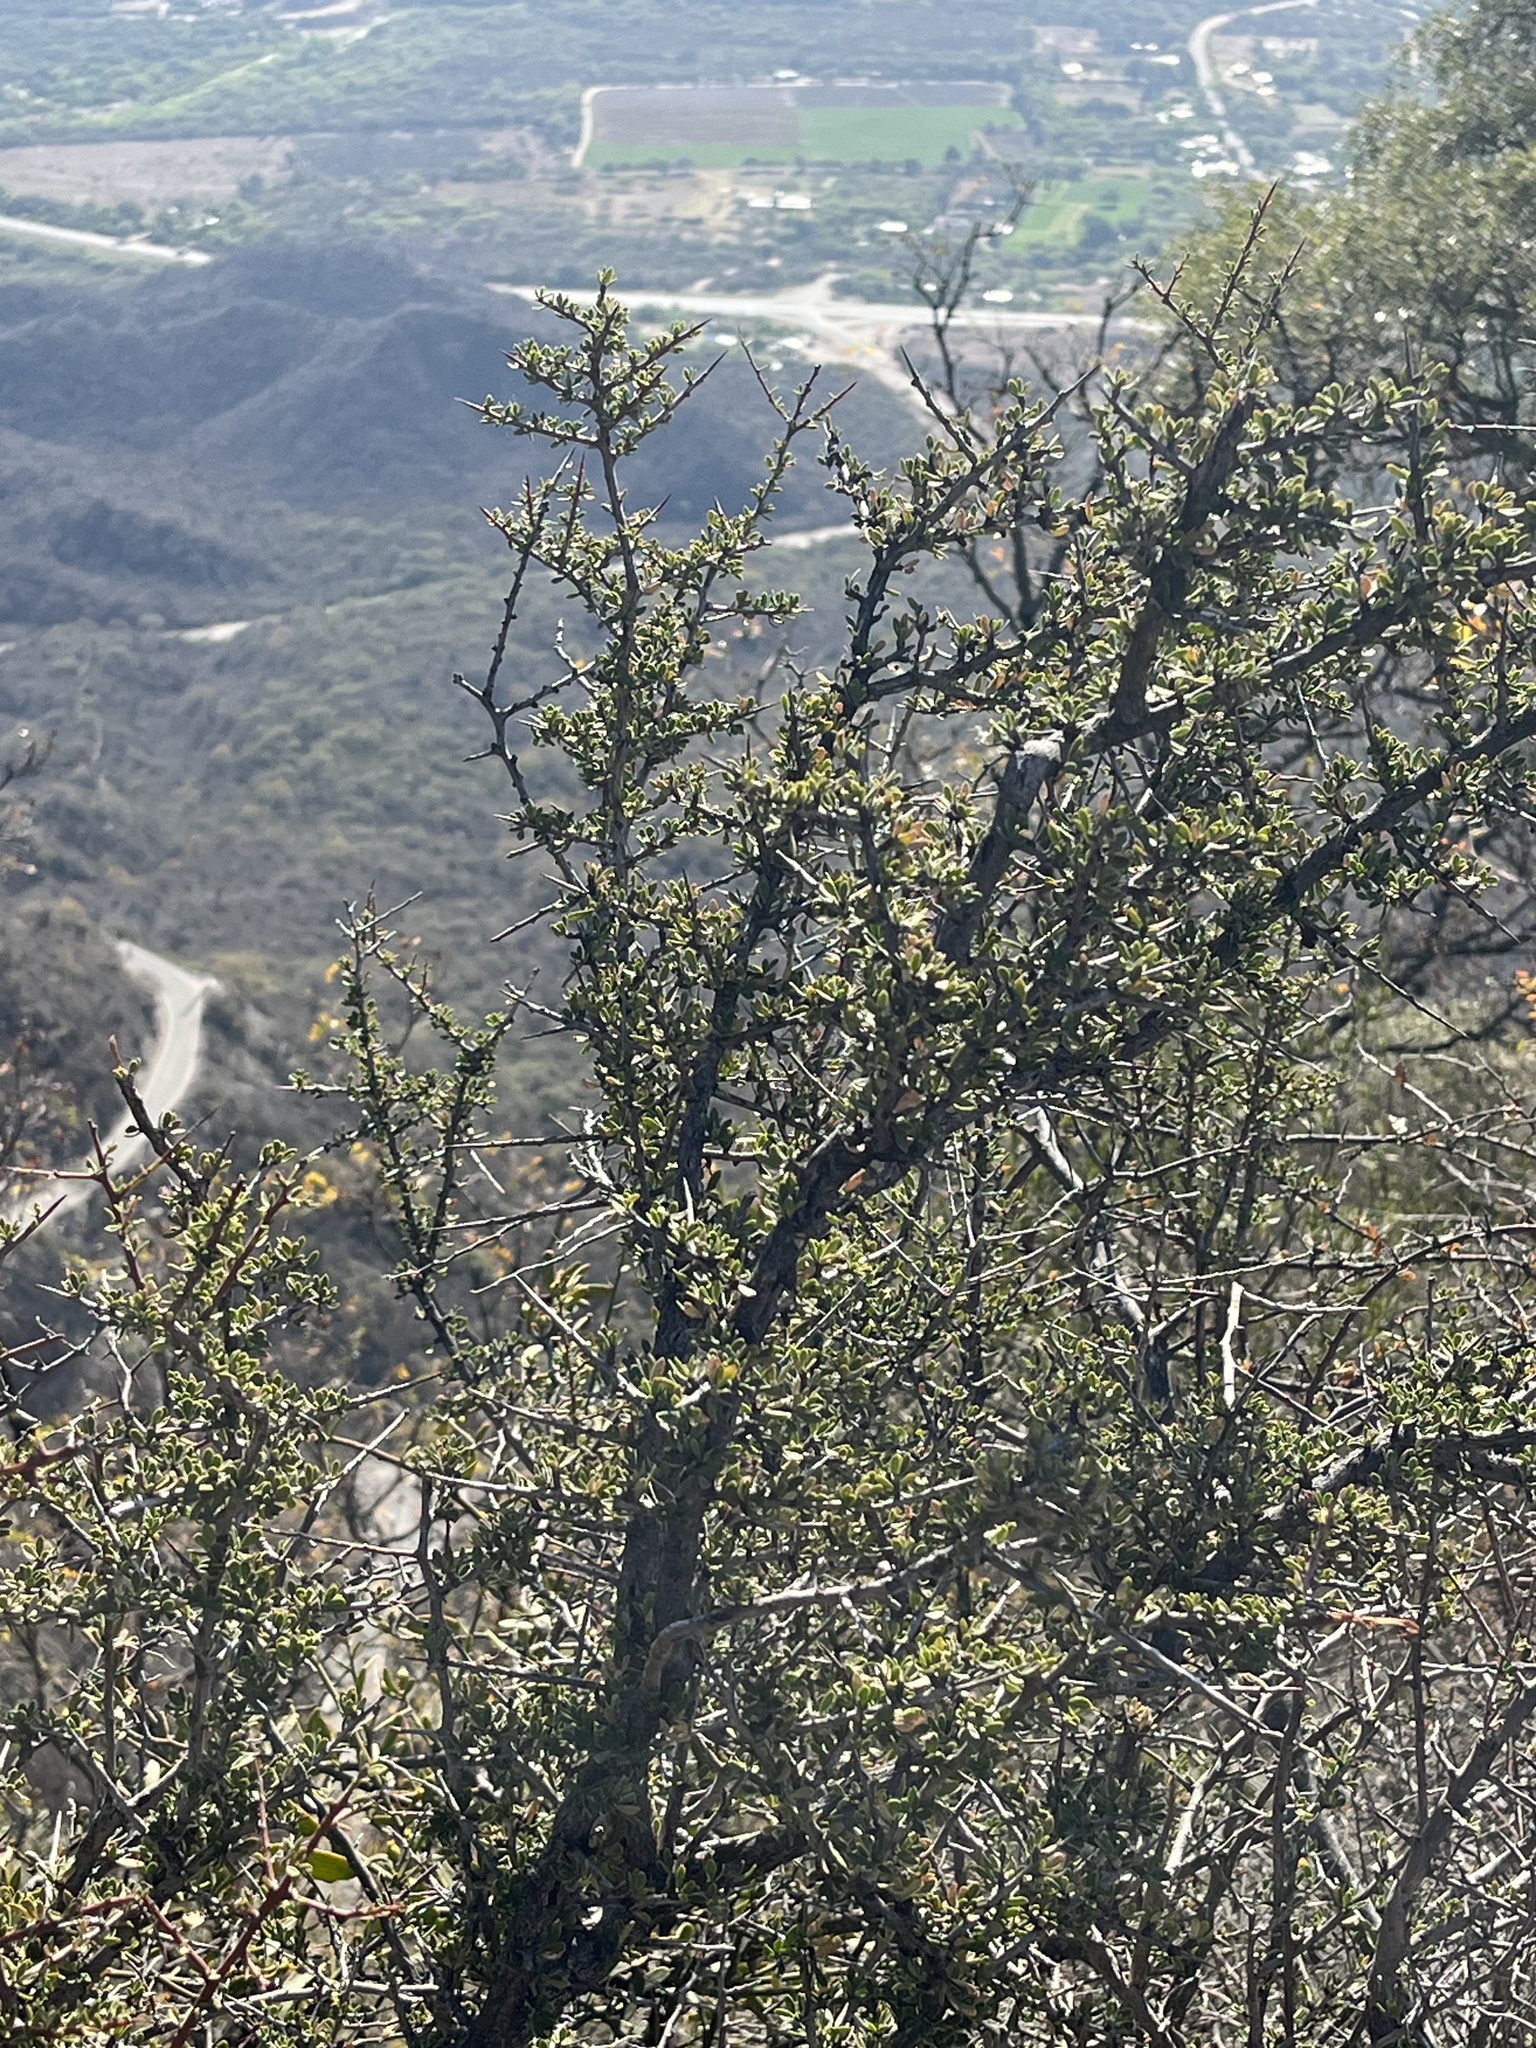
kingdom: Plantae
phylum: Tracheophyta
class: Magnoliopsida
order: Fabales
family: Fabaceae
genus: Senegalia
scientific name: Senegalia praecox
